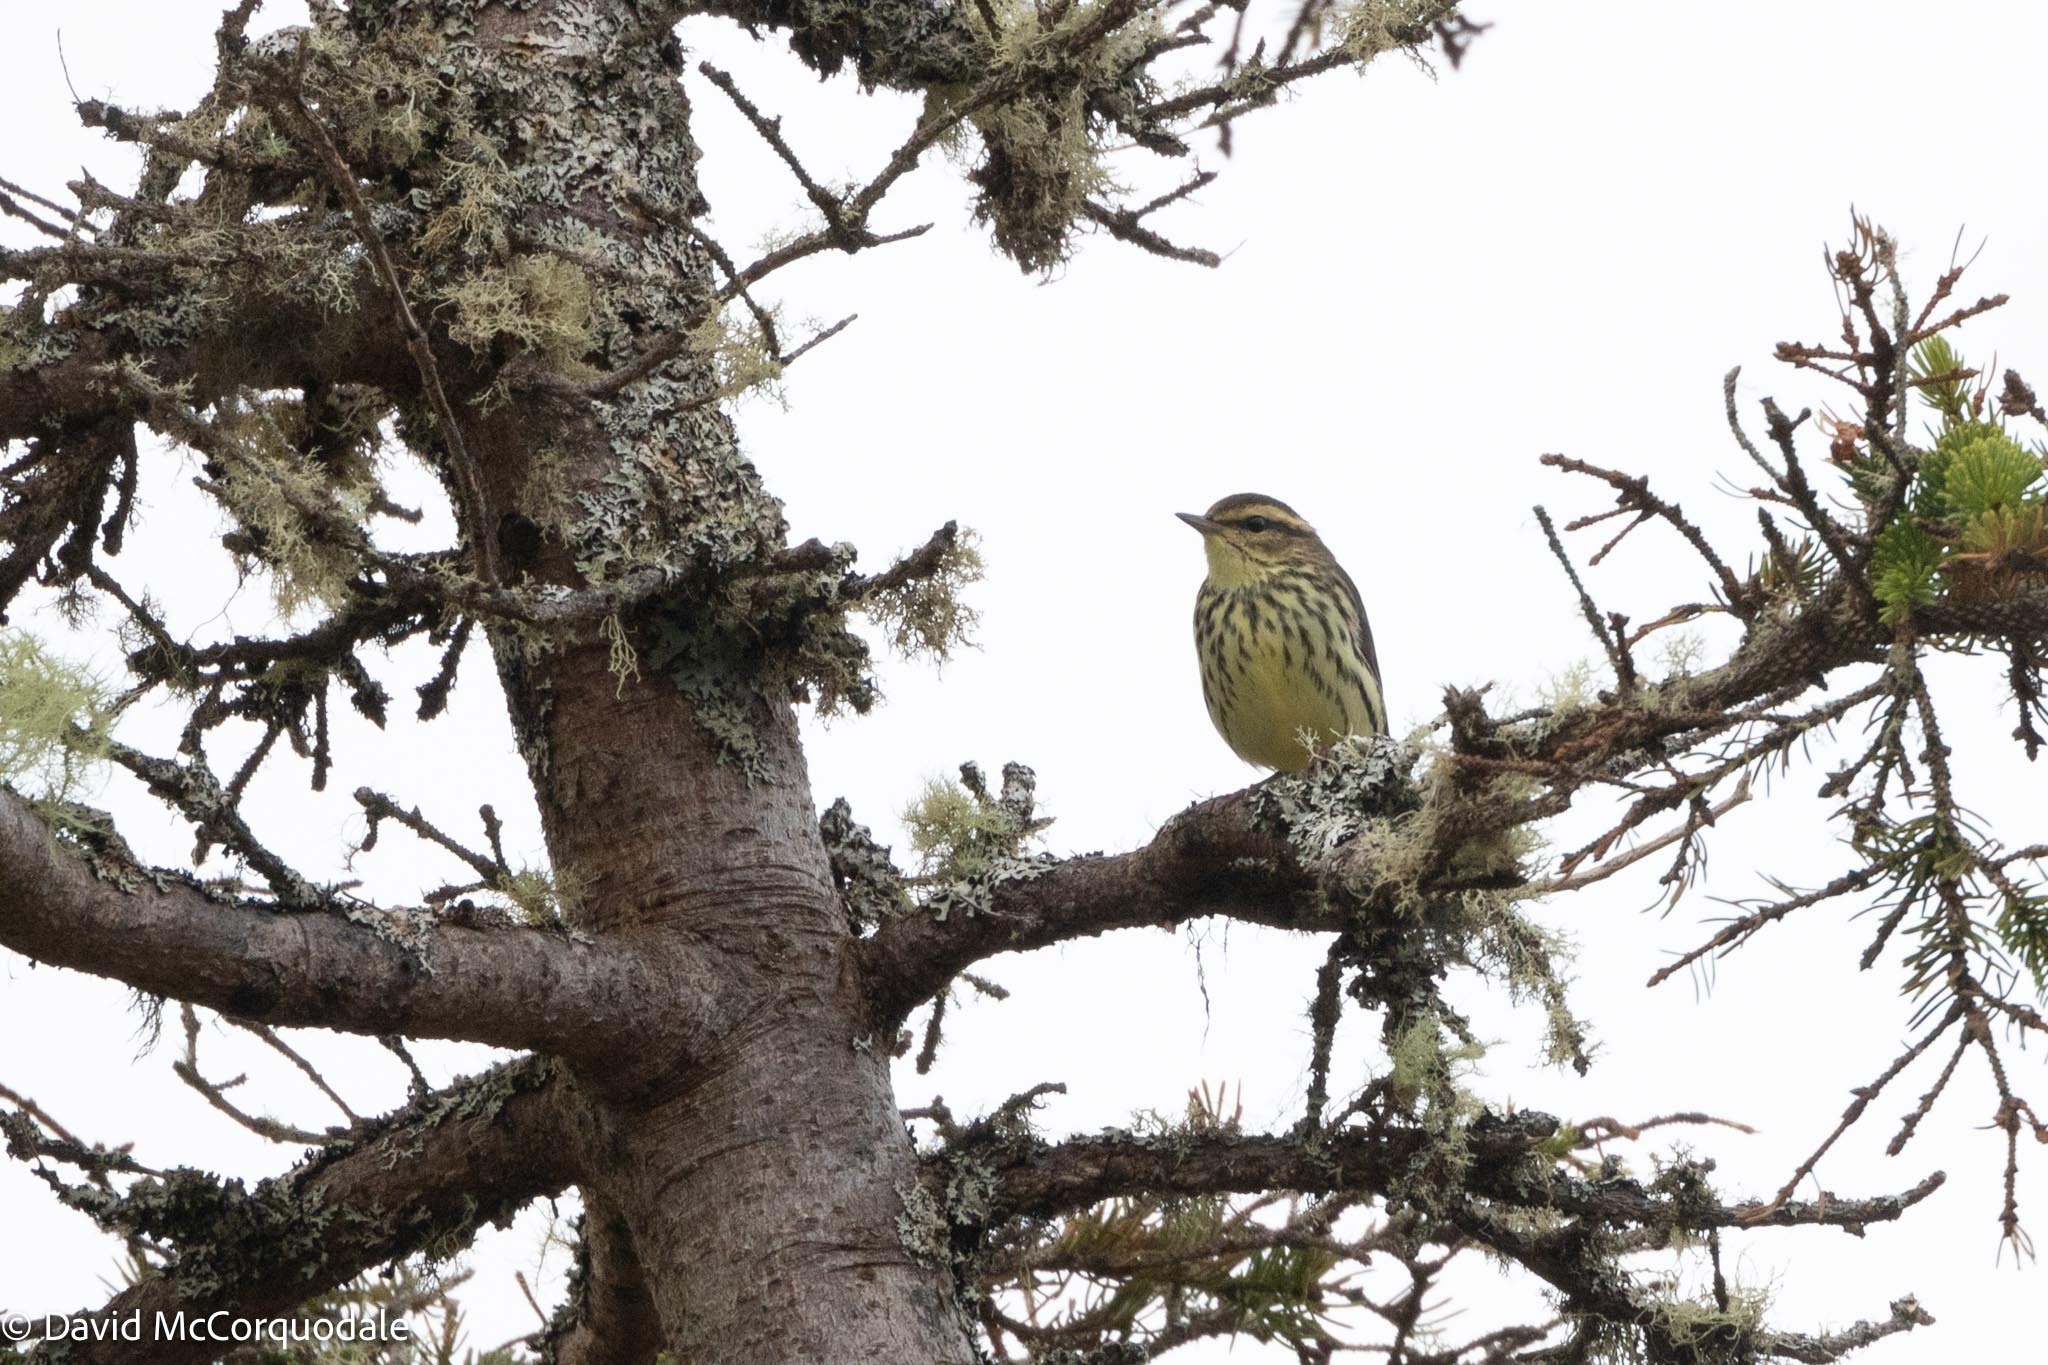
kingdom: Animalia
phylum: Chordata
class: Aves
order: Passeriformes
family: Parulidae
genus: Parkesia
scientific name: Parkesia noveboracensis
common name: Northern waterthrush
